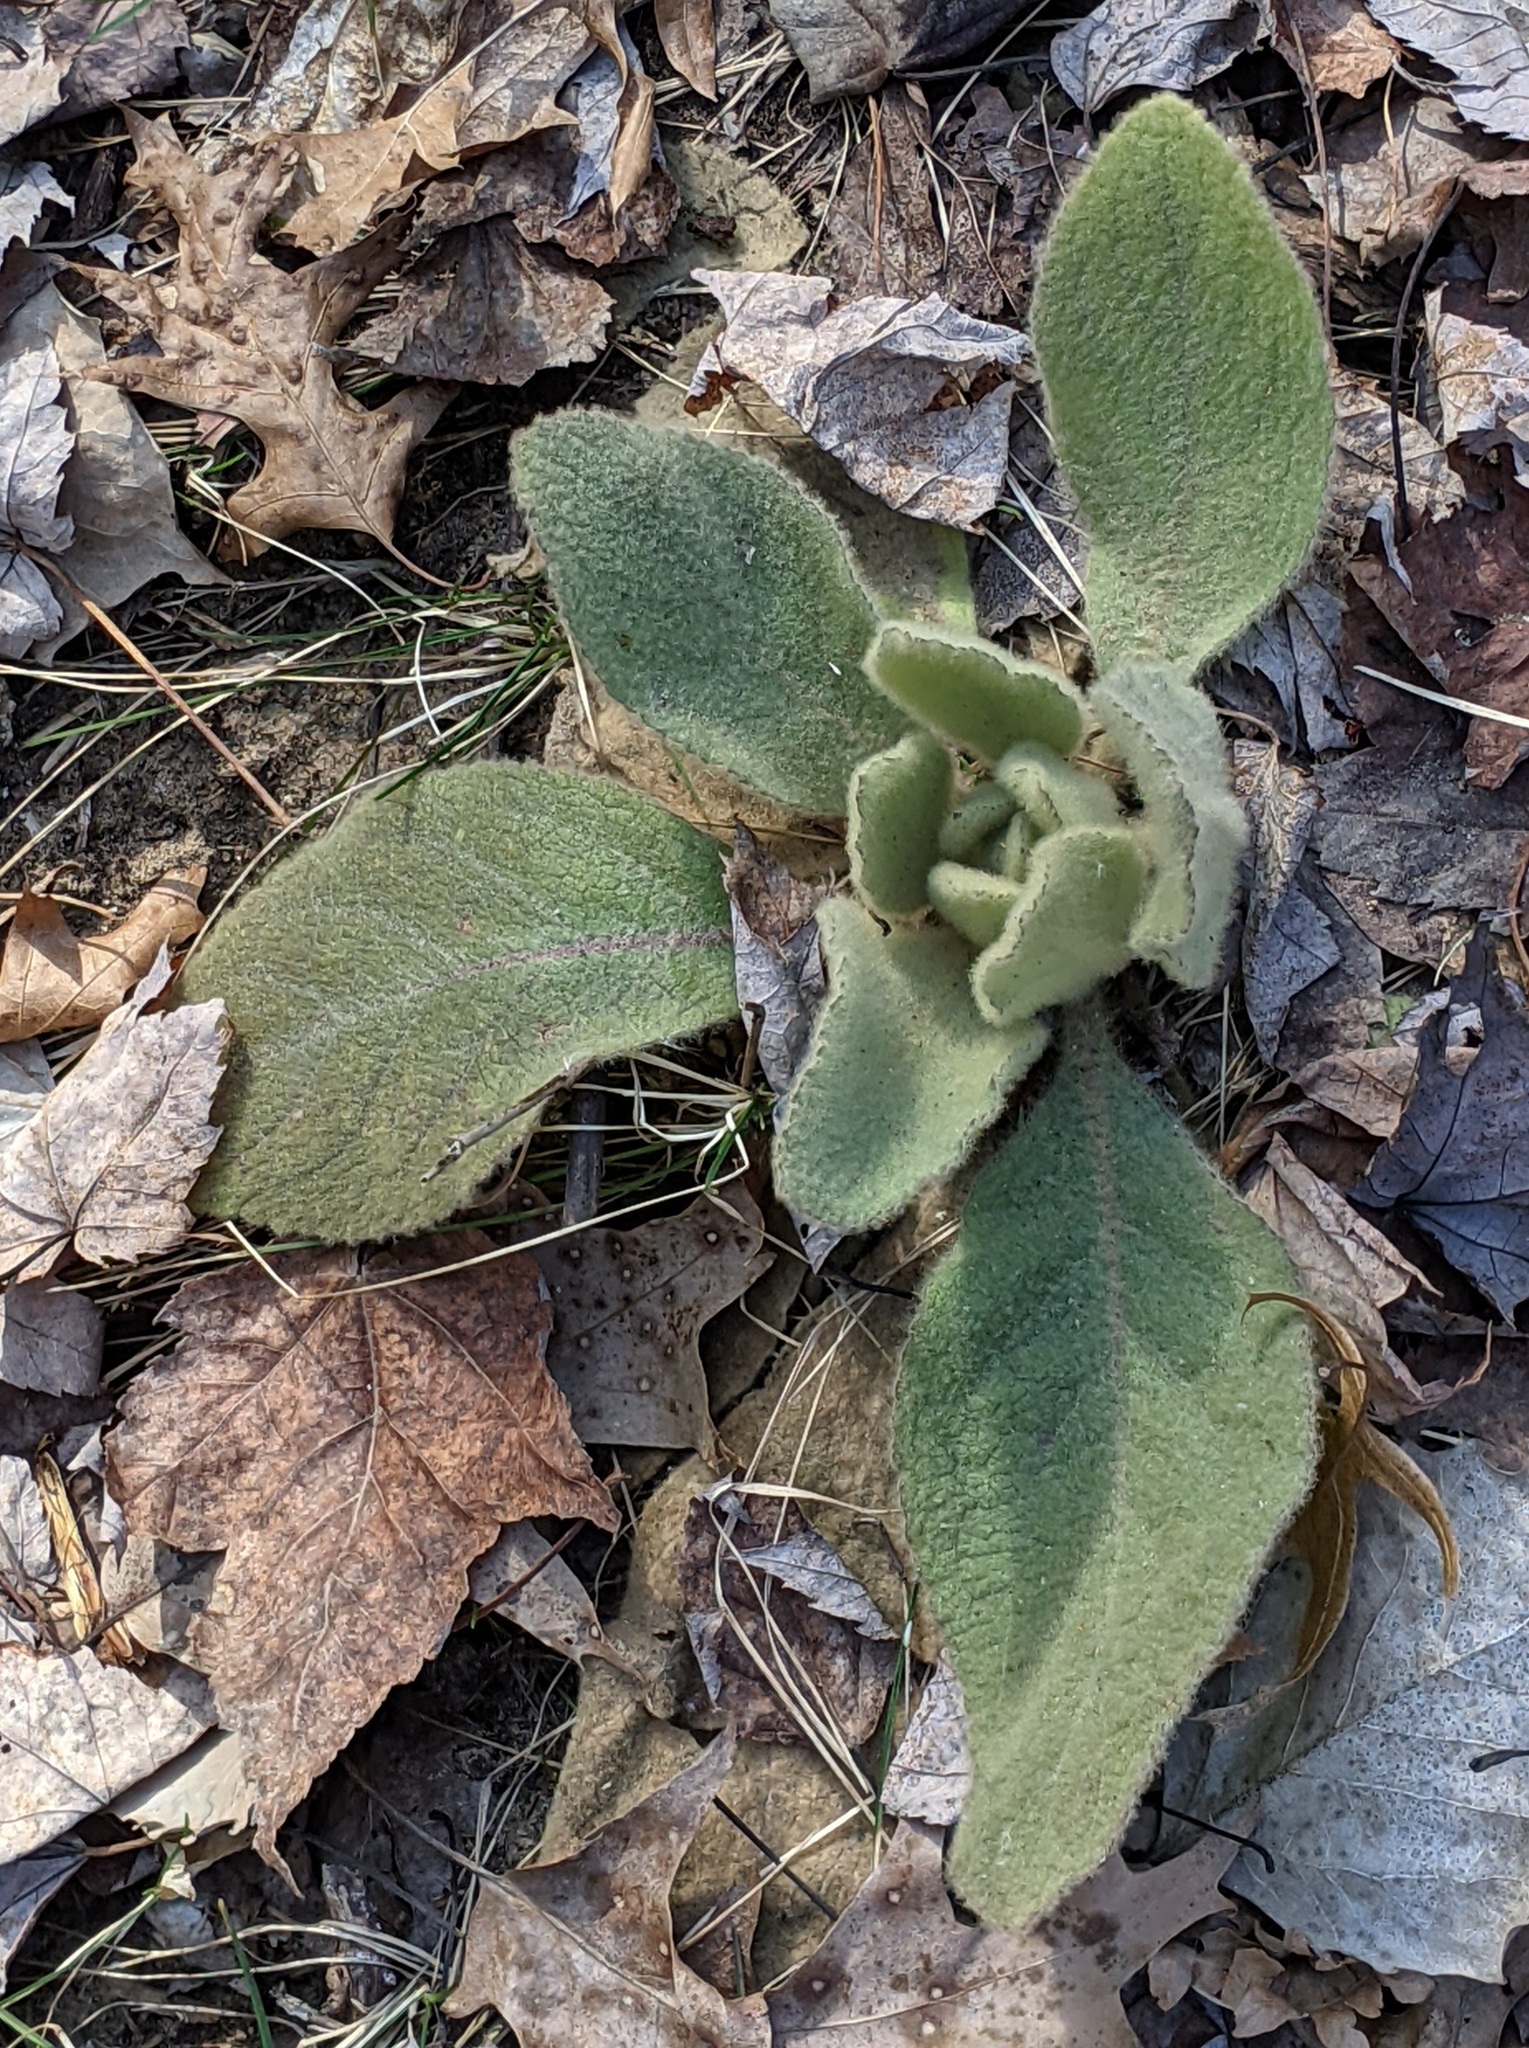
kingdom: Plantae
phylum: Tracheophyta
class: Magnoliopsida
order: Lamiales
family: Scrophulariaceae
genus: Verbascum
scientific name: Verbascum thapsus
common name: Common mullein
